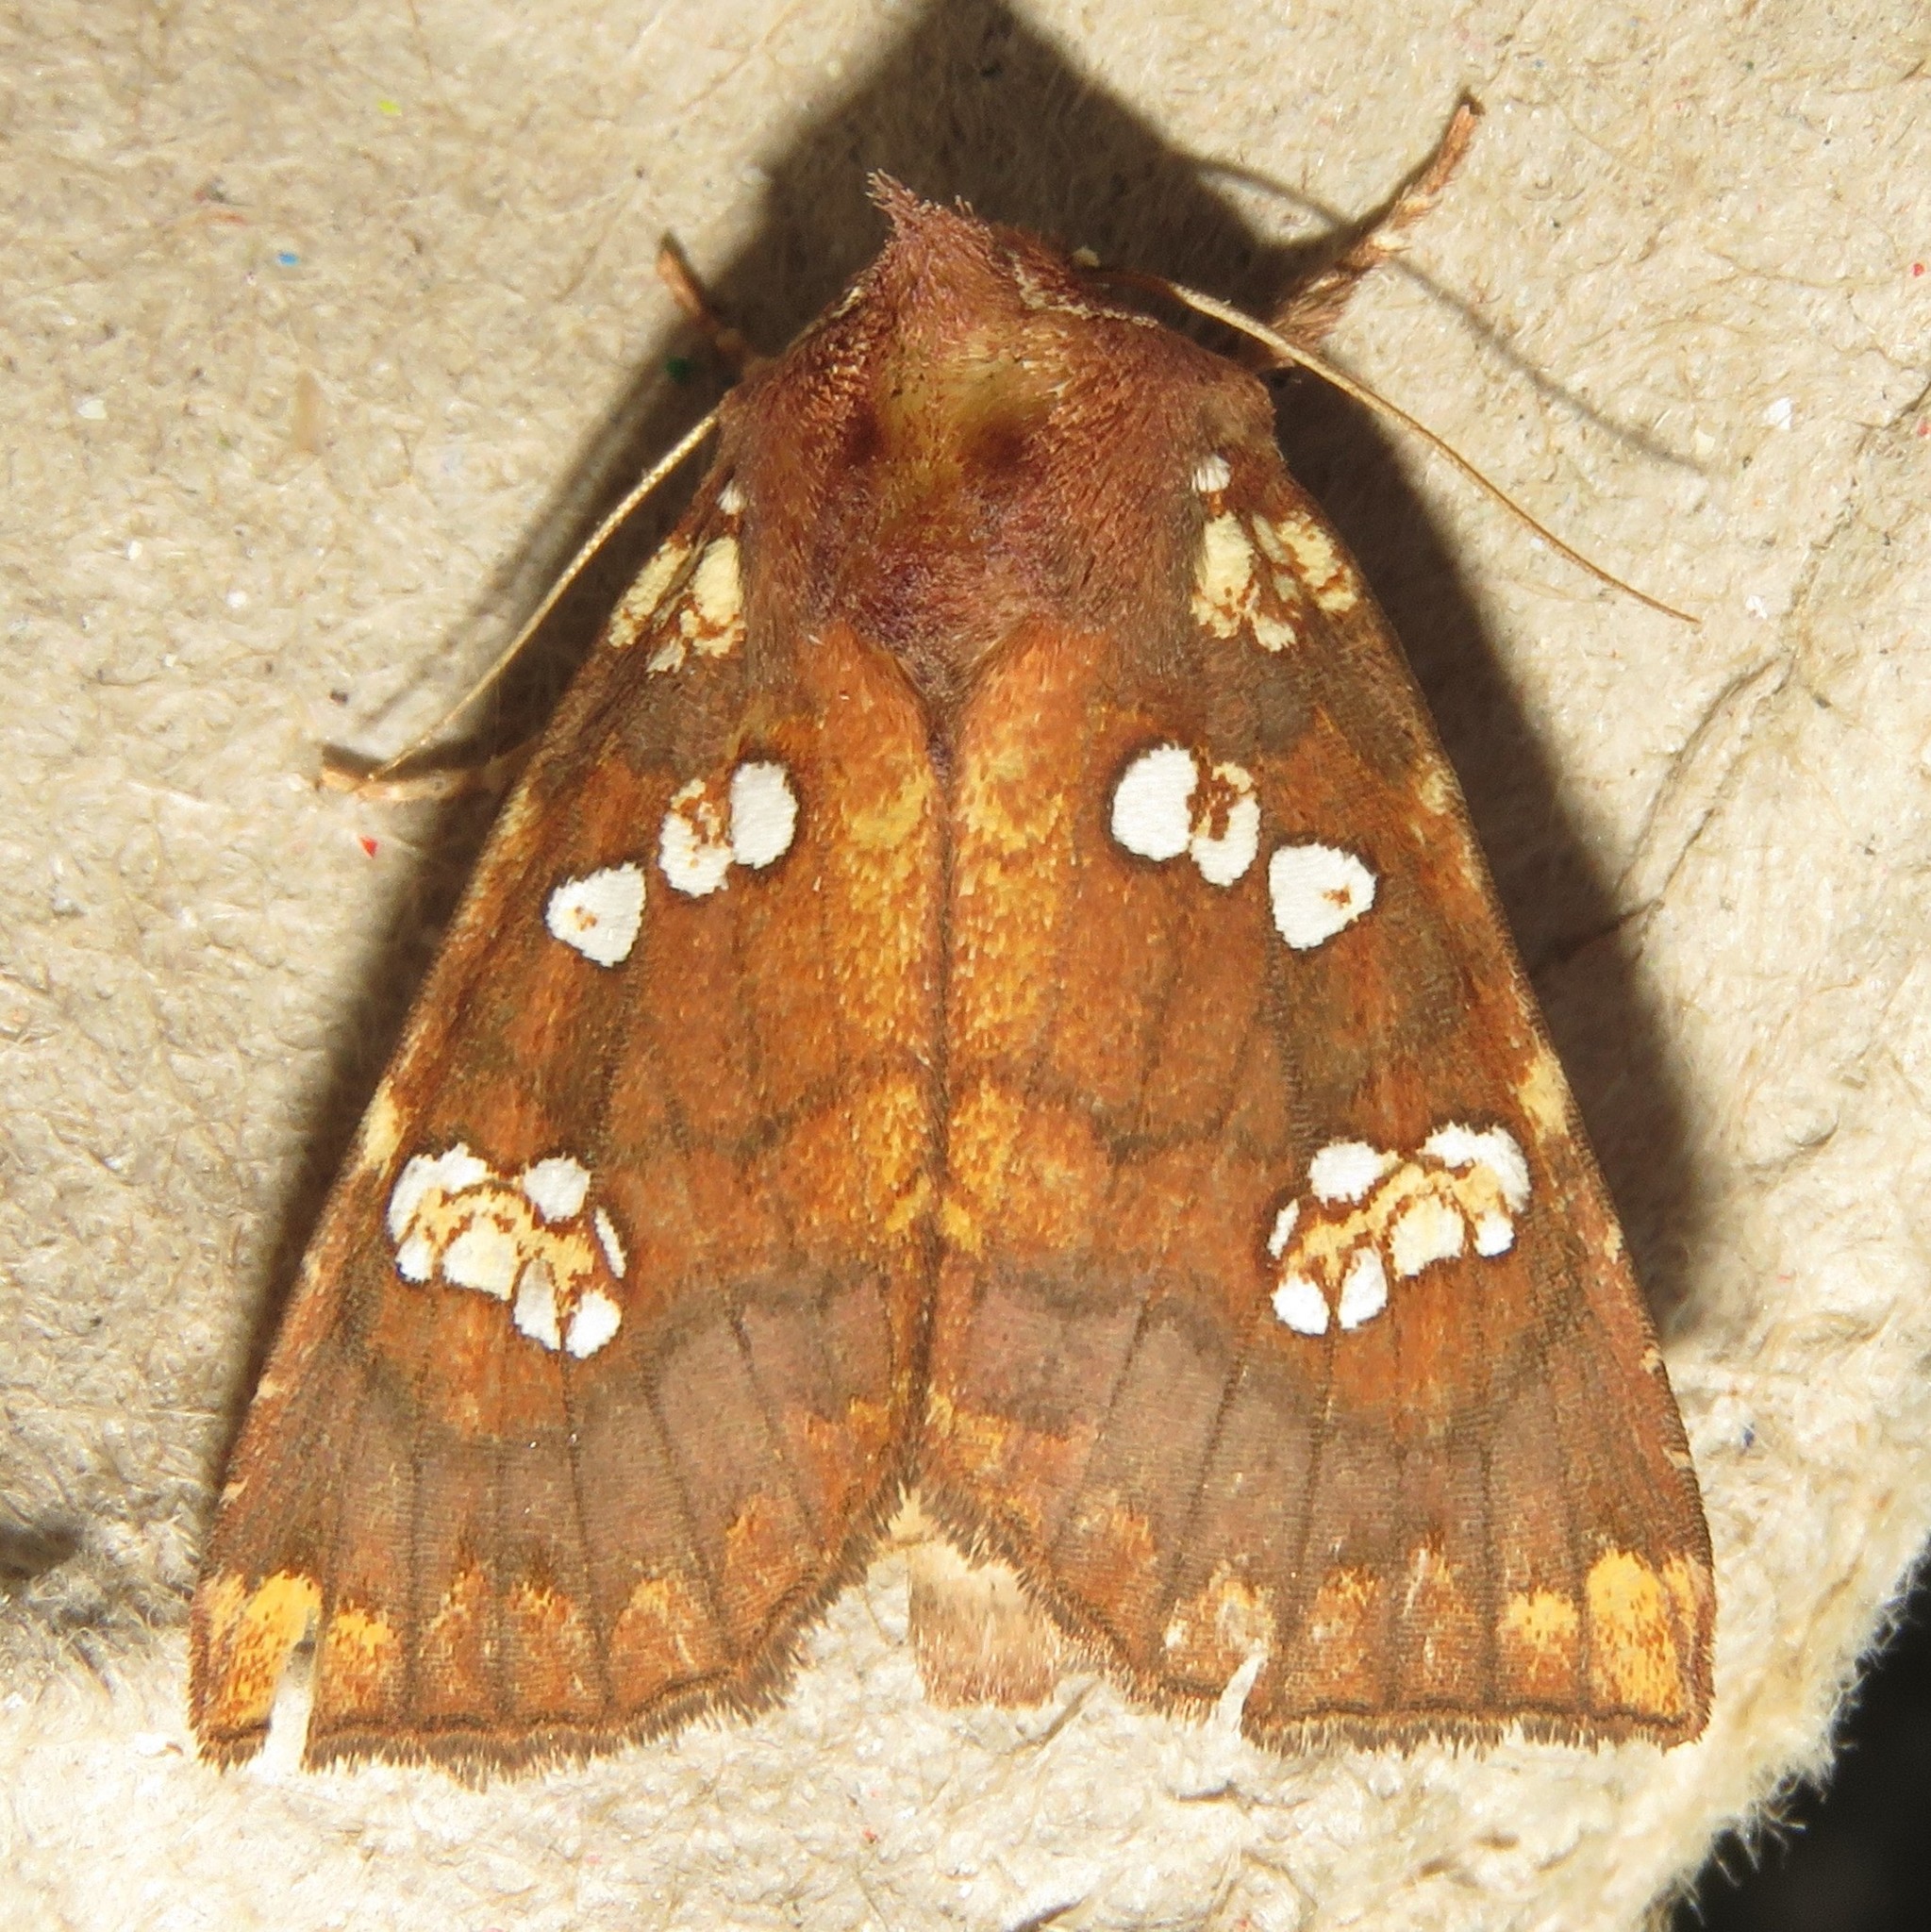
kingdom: Animalia
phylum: Arthropoda
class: Insecta
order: Lepidoptera
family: Noctuidae
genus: Papaipema
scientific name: Papaipema insulidens
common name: Ragwort stem borer moth
